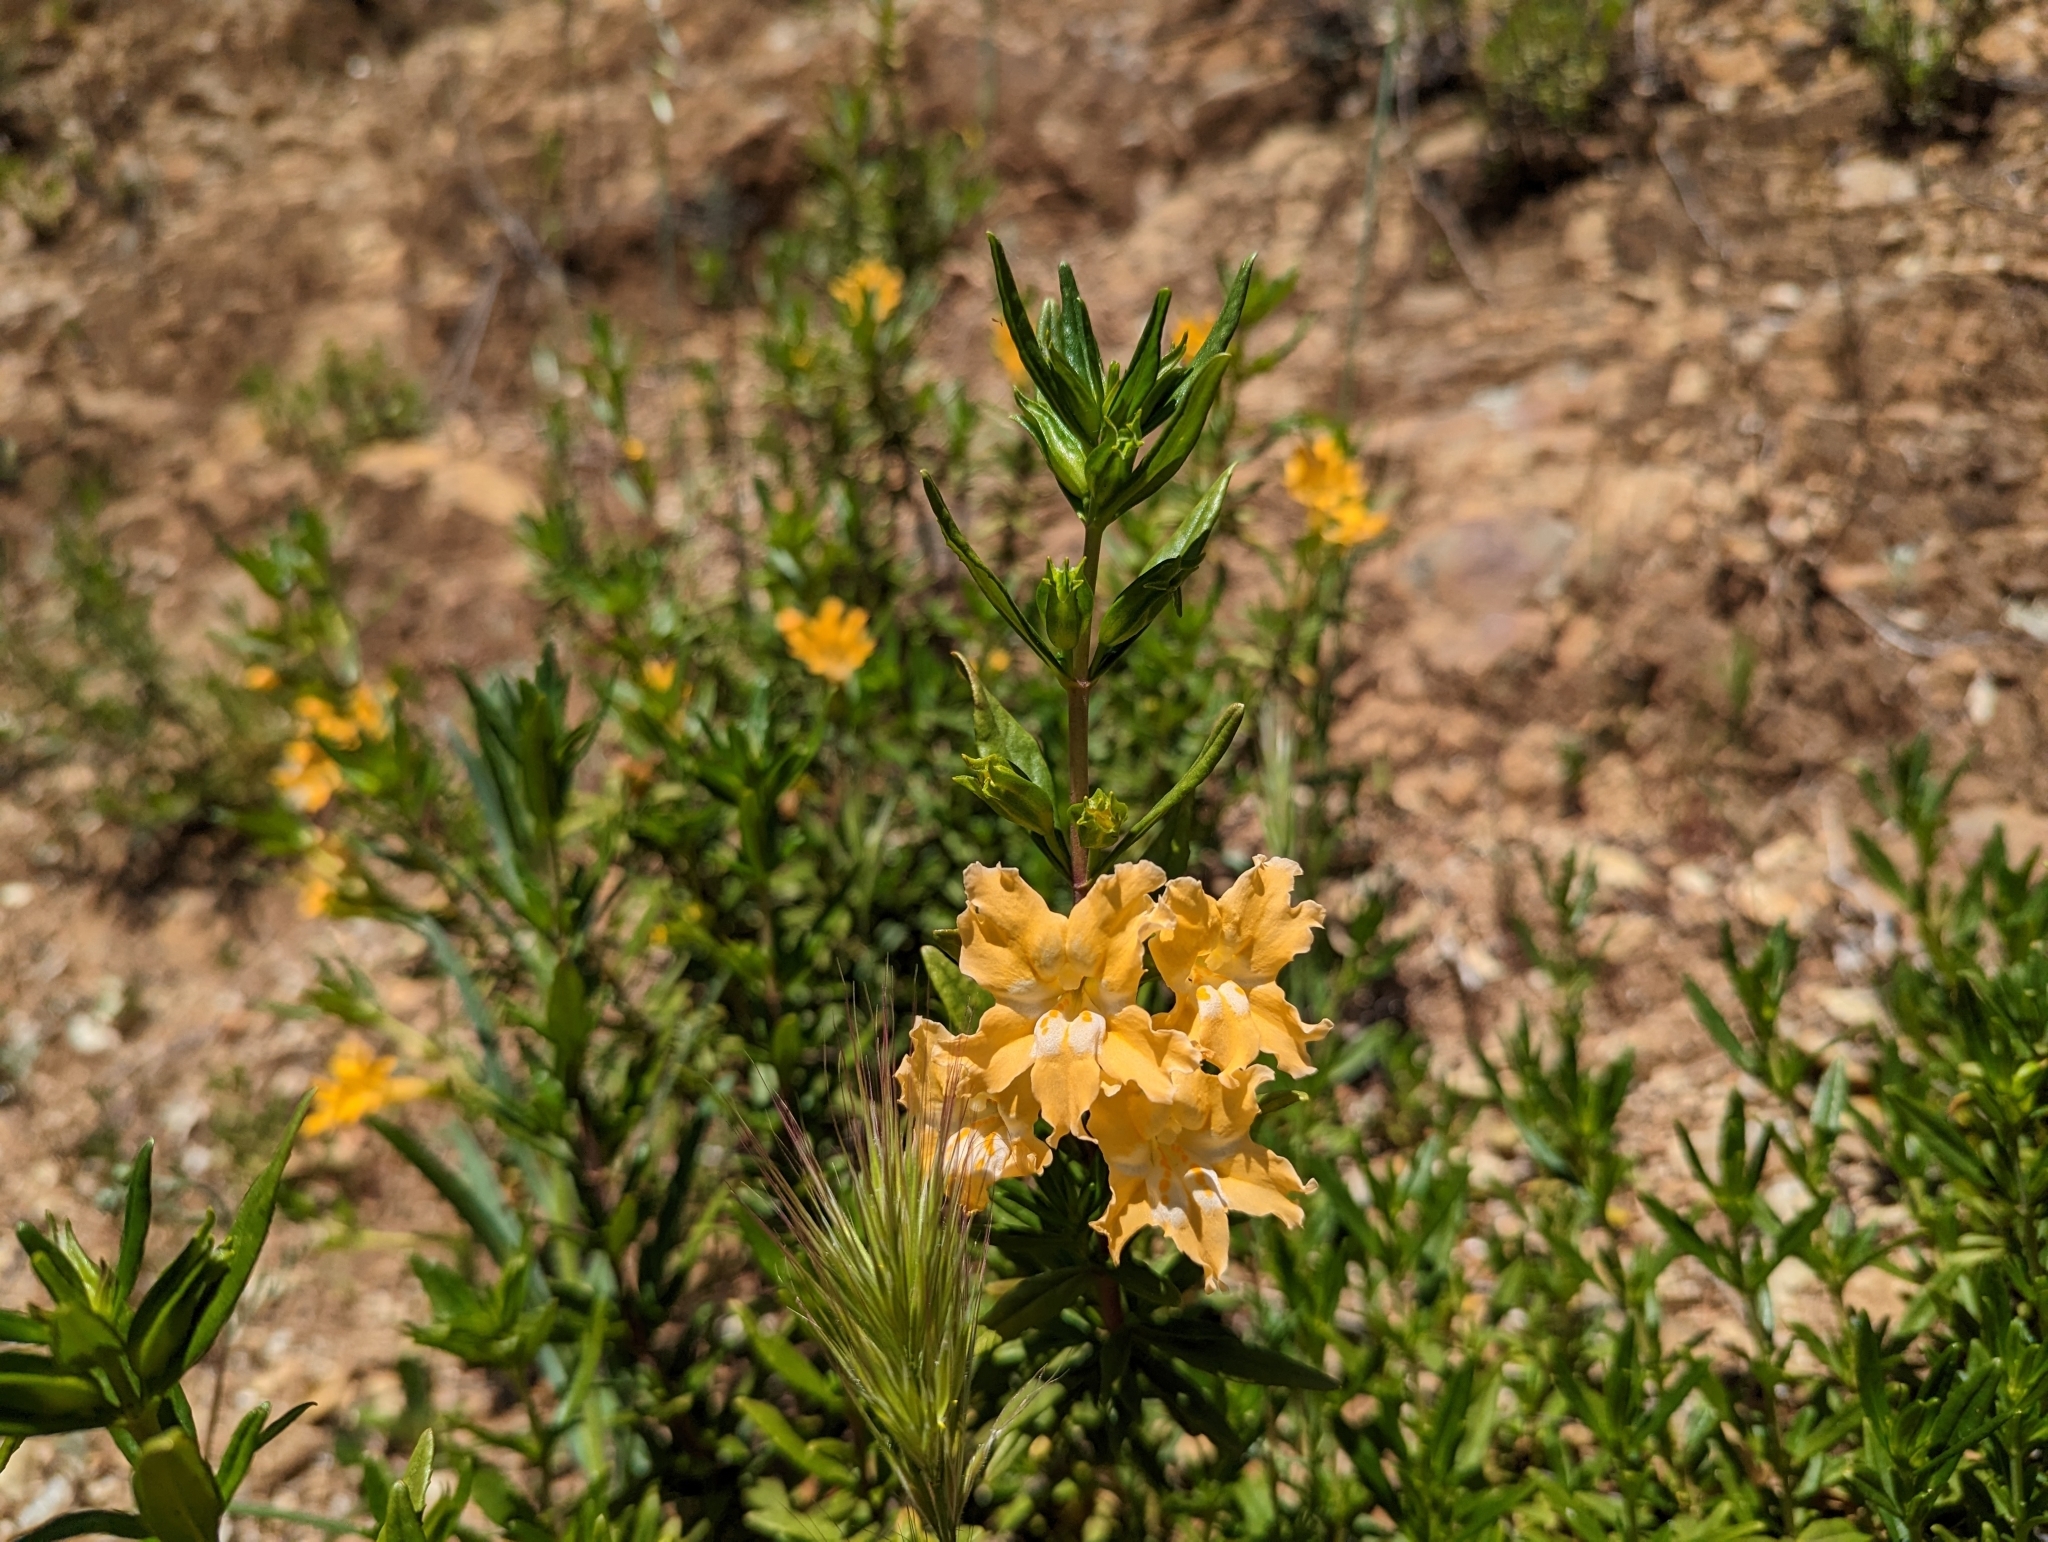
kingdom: Plantae
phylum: Tracheophyta
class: Magnoliopsida
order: Lamiales
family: Phrymaceae
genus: Diplacus
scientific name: Diplacus linearis
